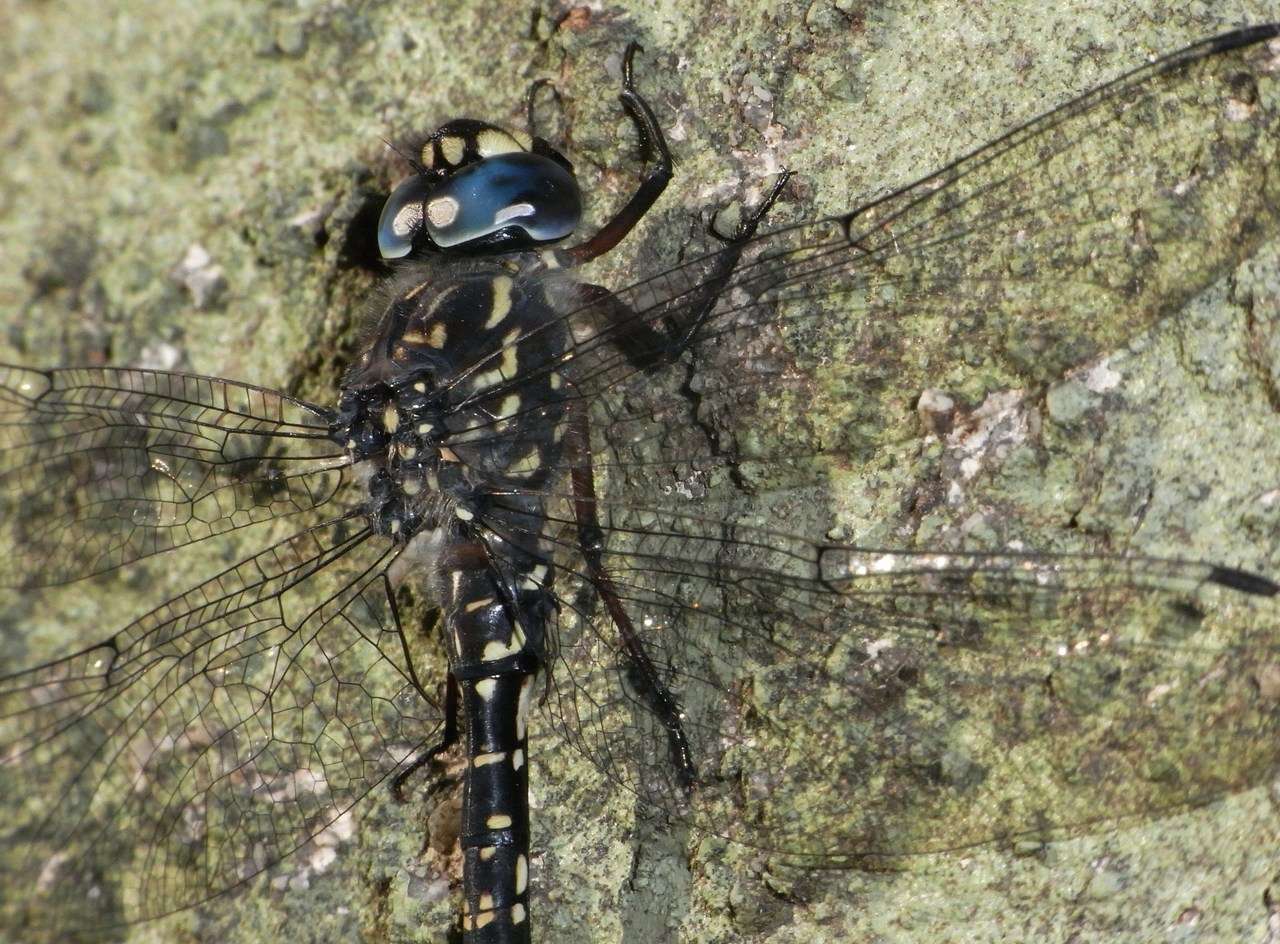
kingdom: Animalia
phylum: Arthropoda
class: Insecta
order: Odonata
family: Aeshnidae
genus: Austroaeschna
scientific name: Austroaeschna multipunctata
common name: Multi-spotted darner
